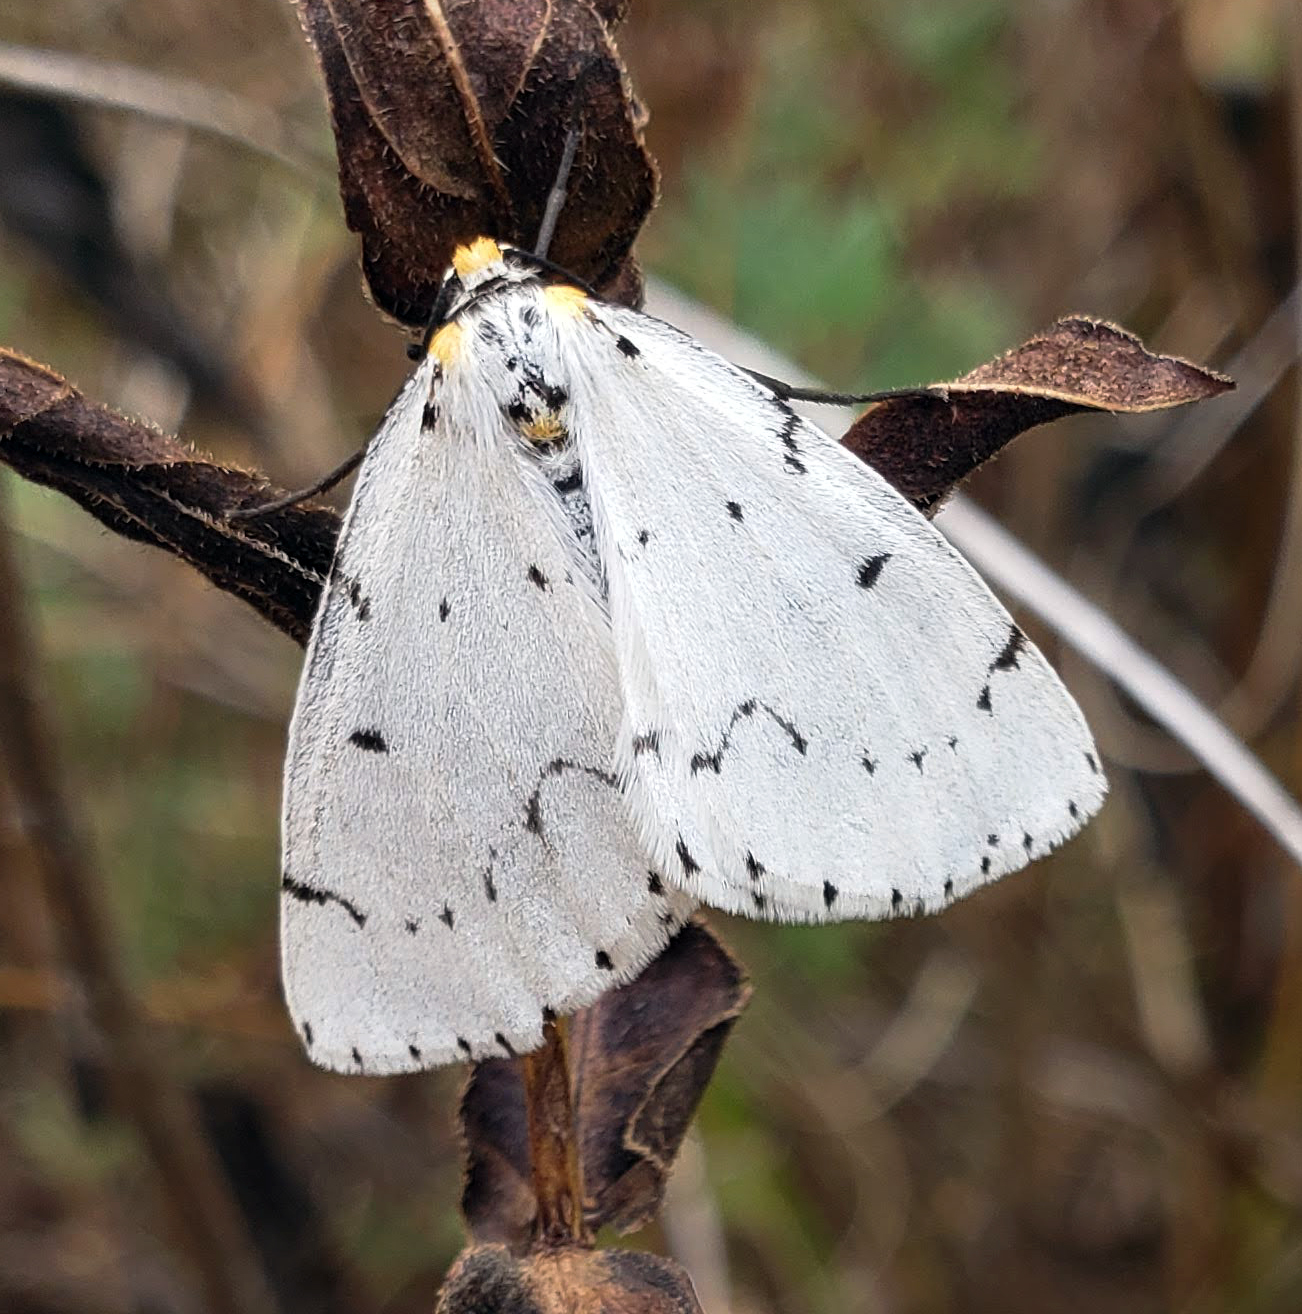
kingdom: Animalia
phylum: Arthropoda
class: Insecta
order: Lepidoptera
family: Geometridae
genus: Cingilia
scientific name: Cingilia catenaria
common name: Chain-dotted geometer
